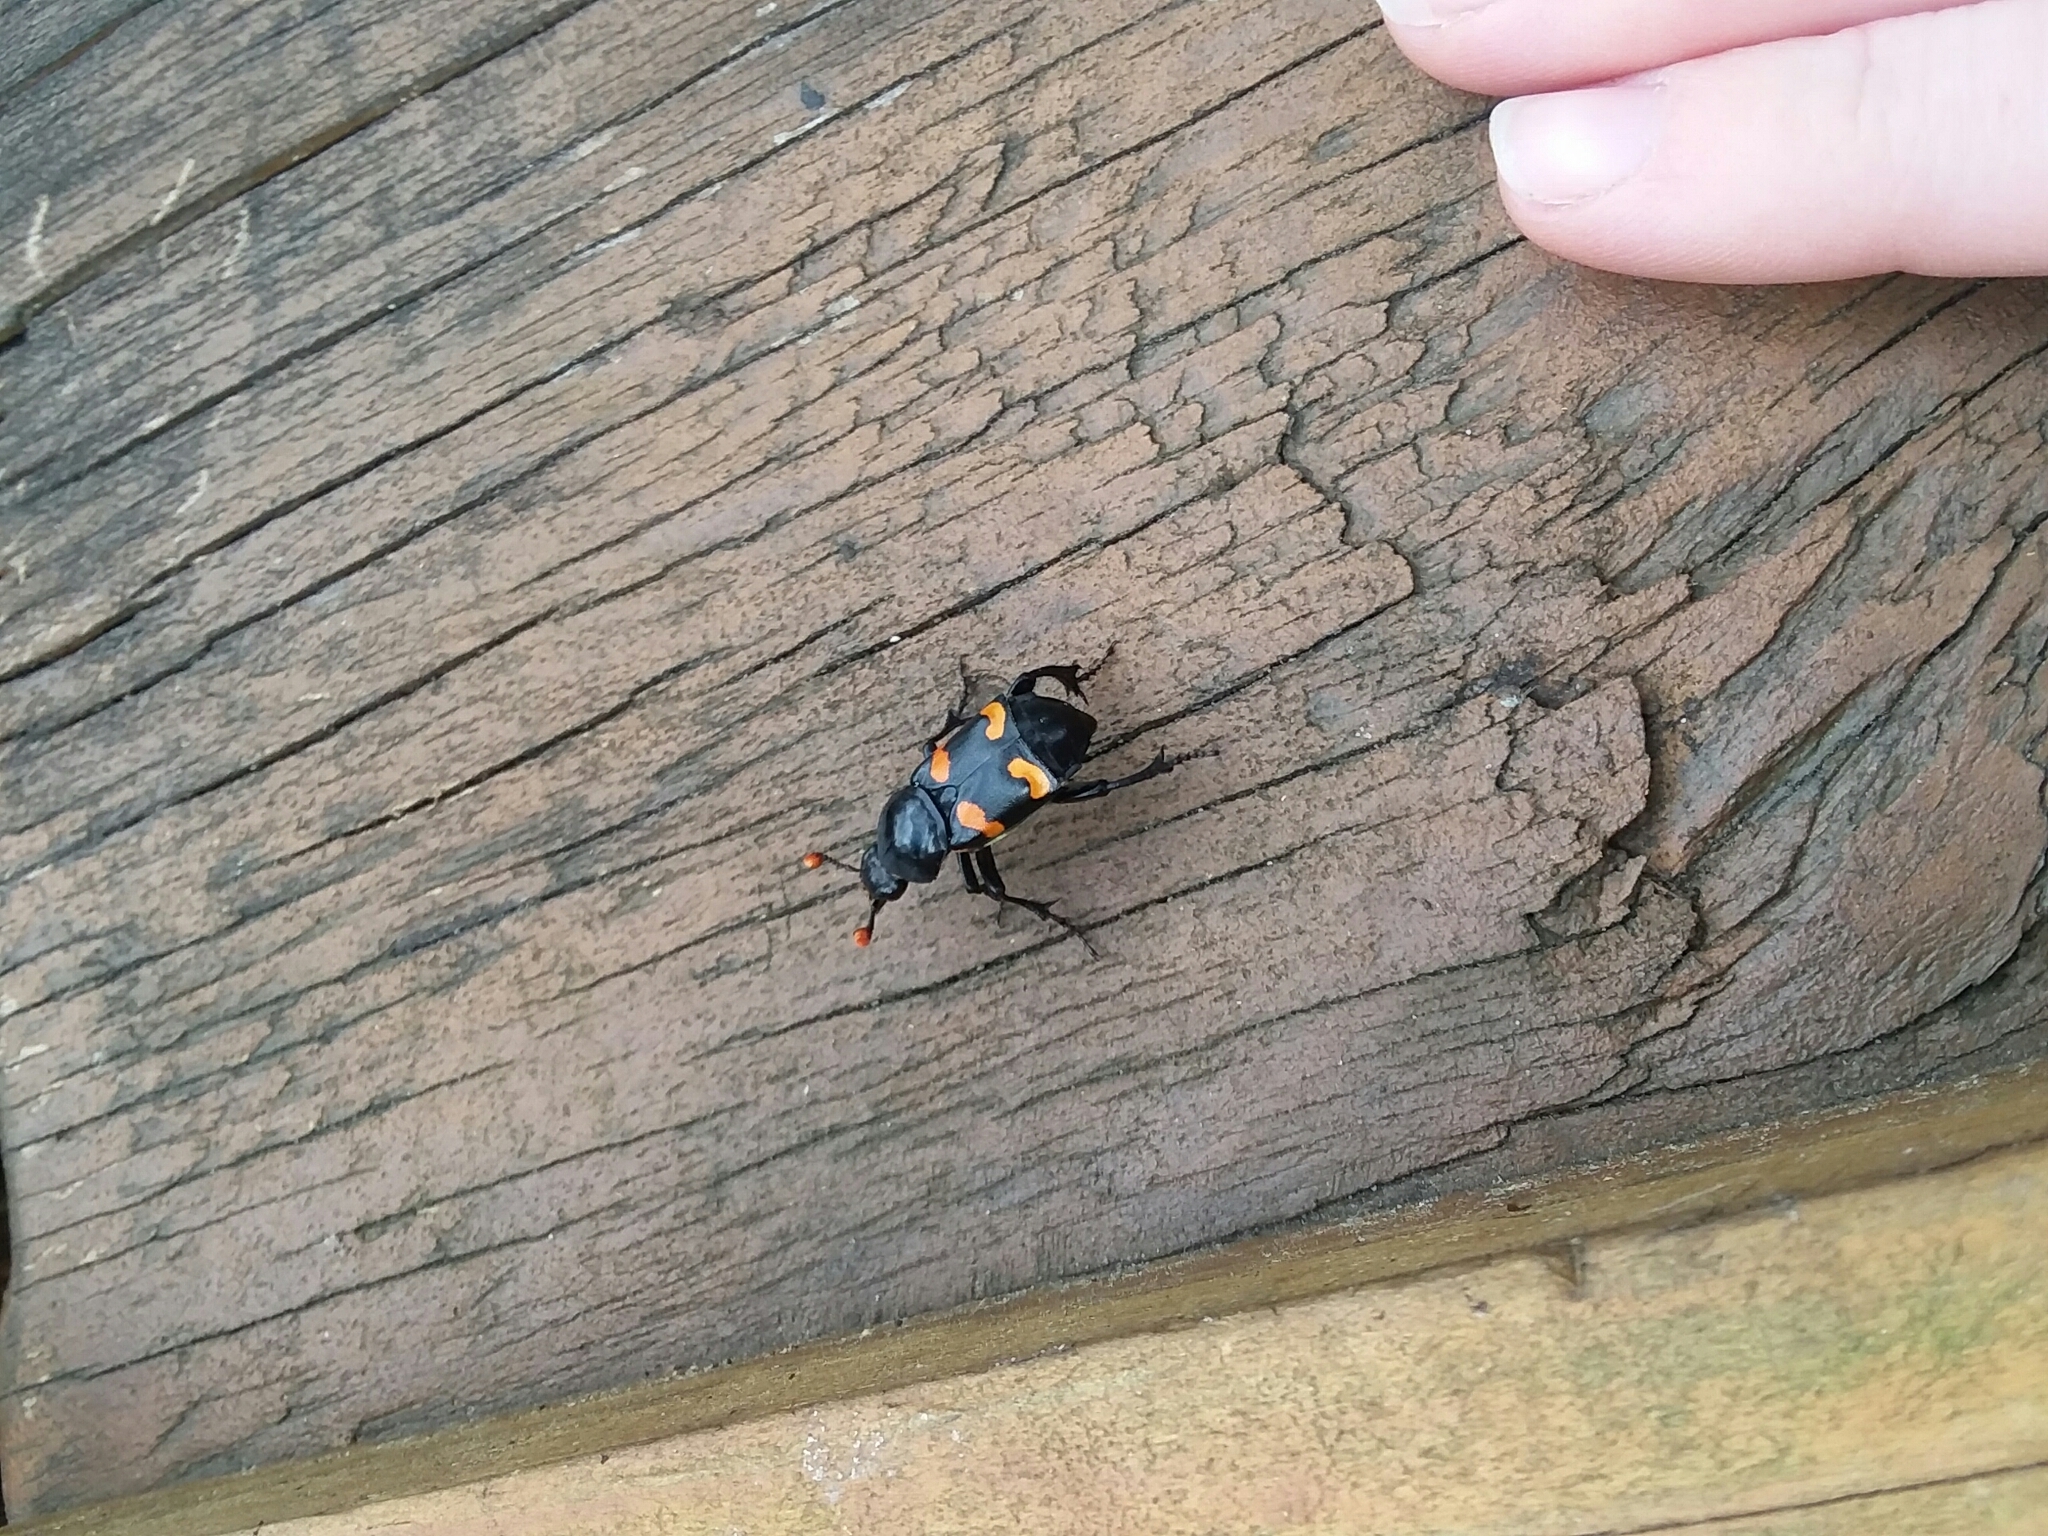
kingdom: Animalia
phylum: Arthropoda
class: Insecta
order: Coleoptera
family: Staphylinidae
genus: Nicrophorus
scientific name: Nicrophorus carolinus
